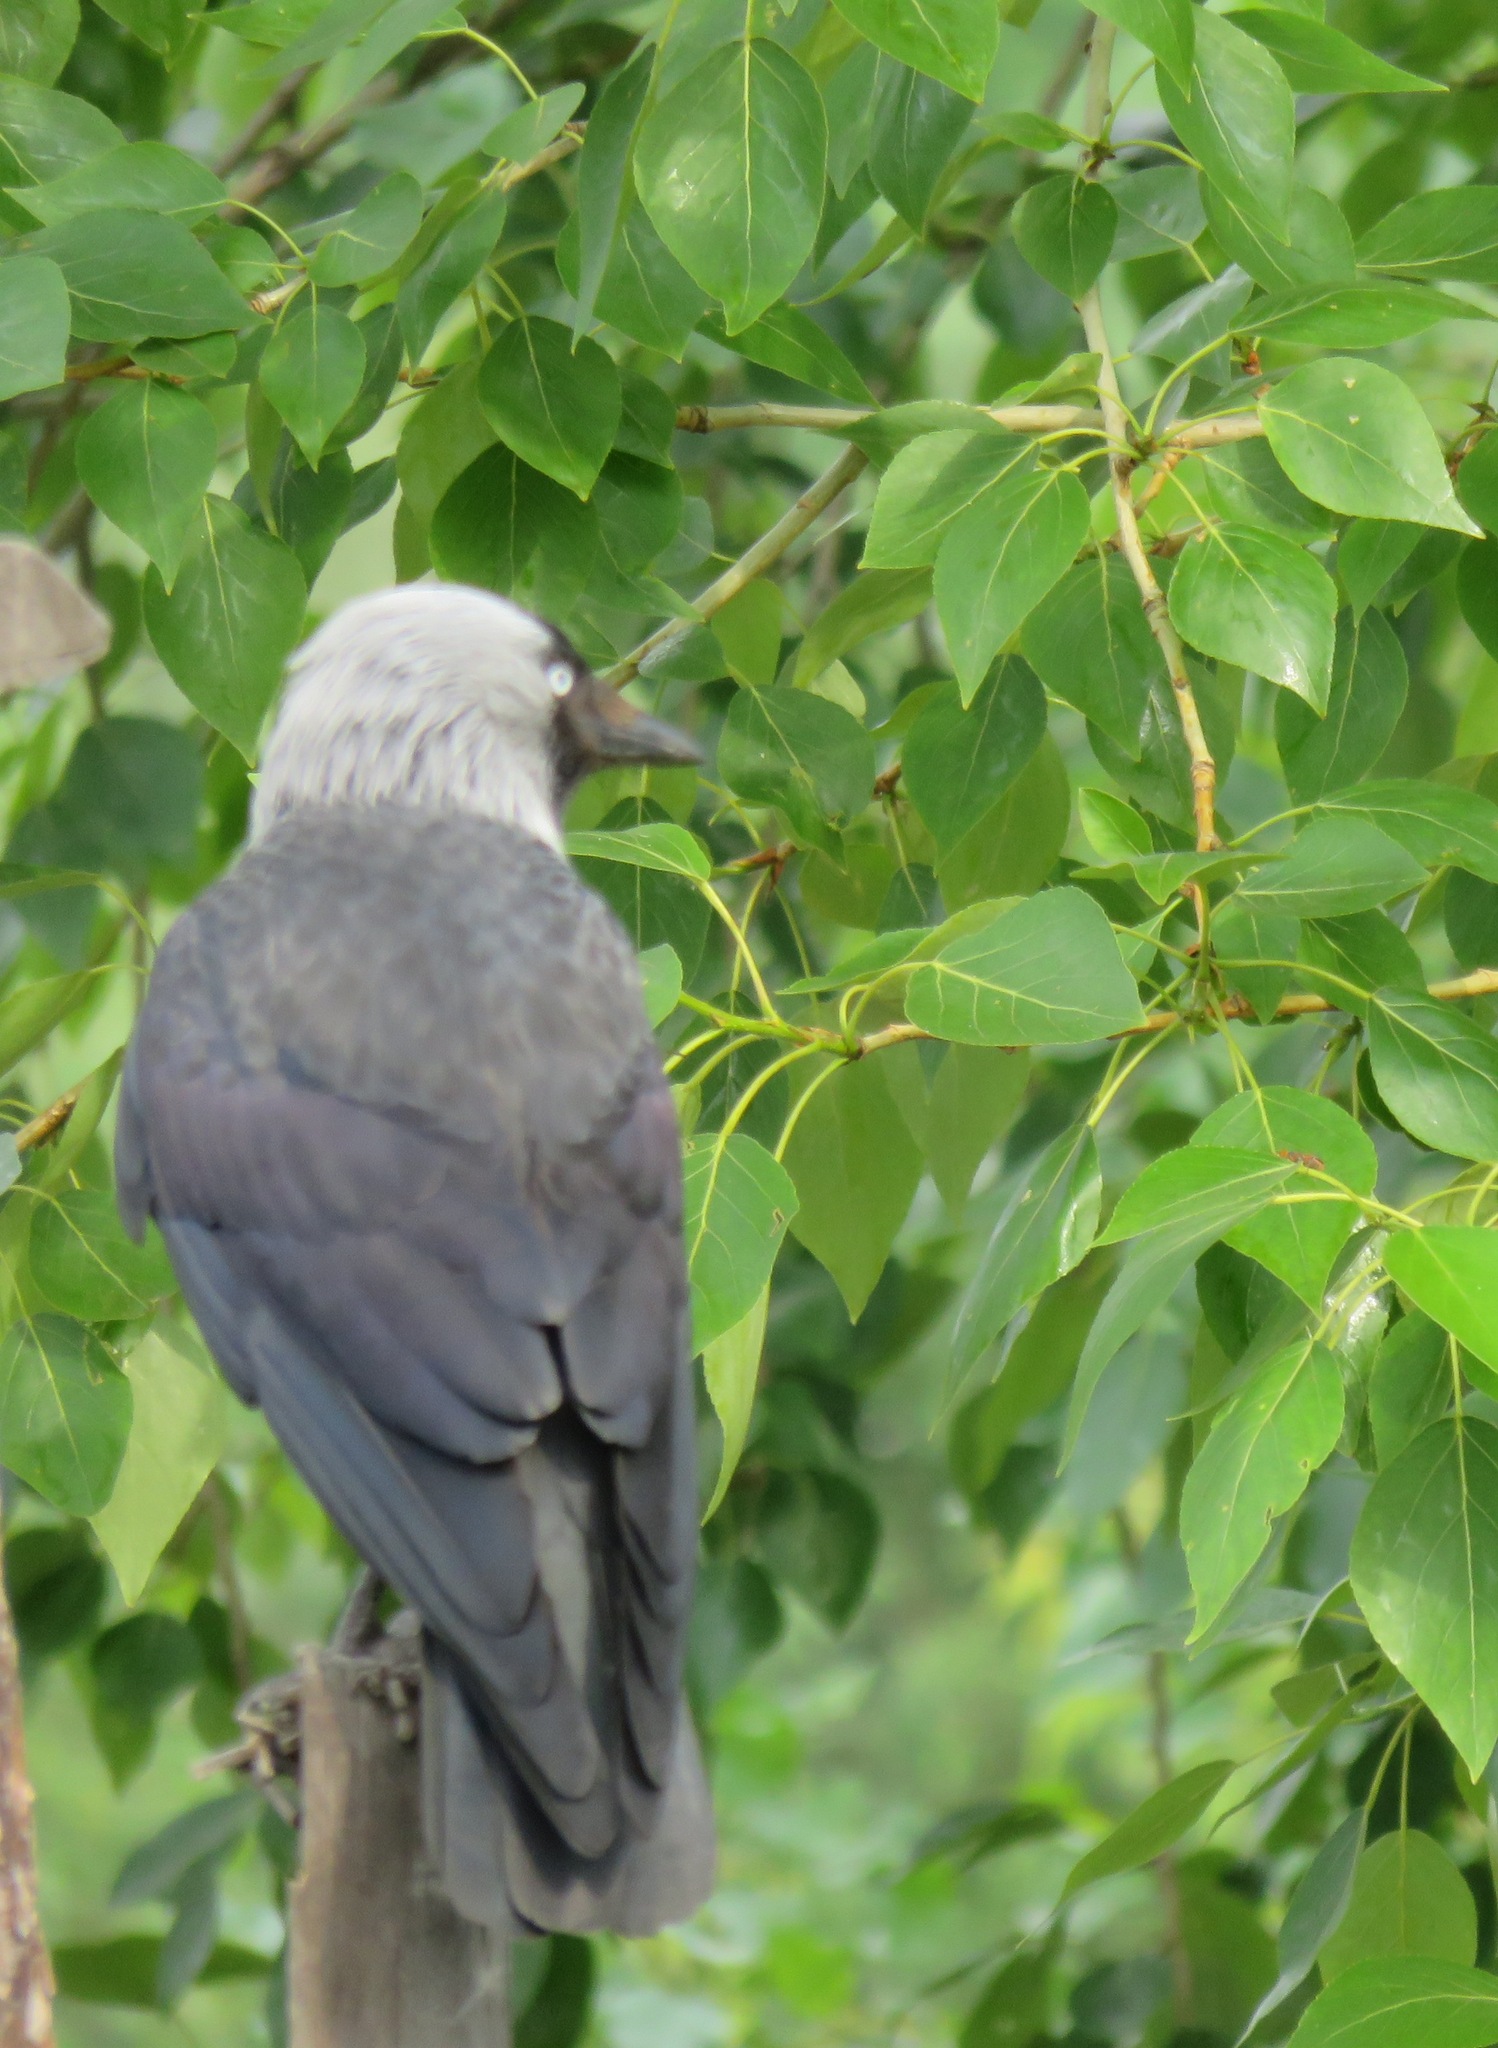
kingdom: Animalia
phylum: Chordata
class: Aves
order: Passeriformes
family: Corvidae
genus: Coloeus
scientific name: Coloeus monedula
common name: Western jackdaw
